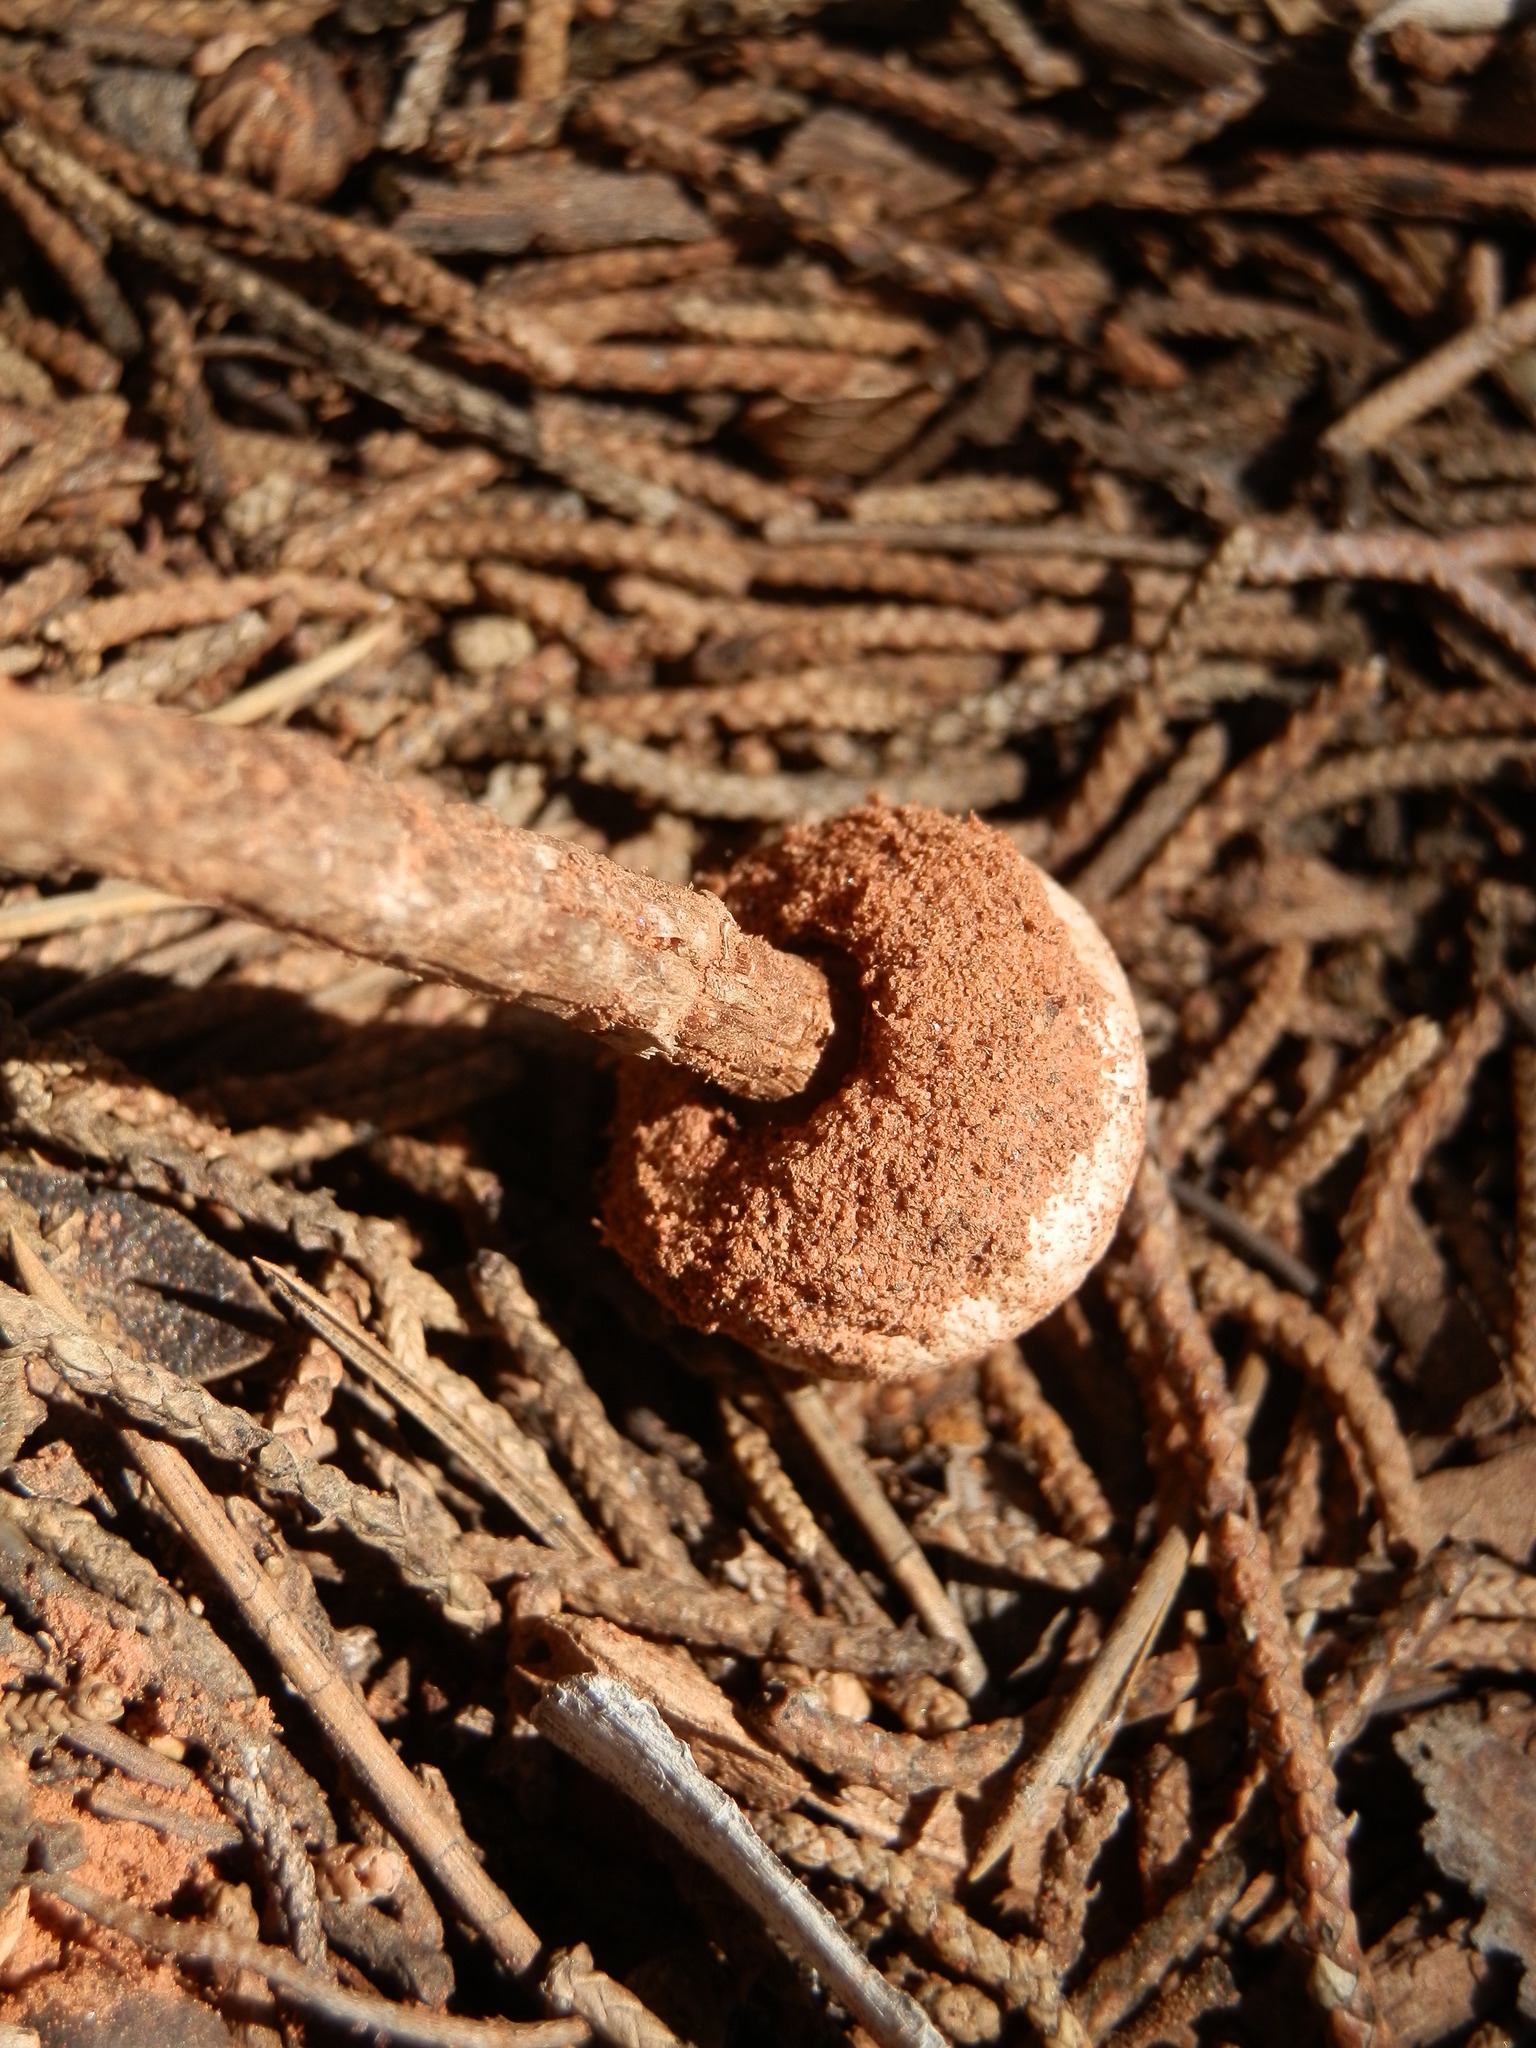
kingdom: Fungi
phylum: Basidiomycota
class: Agaricomycetes
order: Agaricales
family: Agaricaceae
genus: Tulostoma
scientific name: Tulostoma polymorphum
